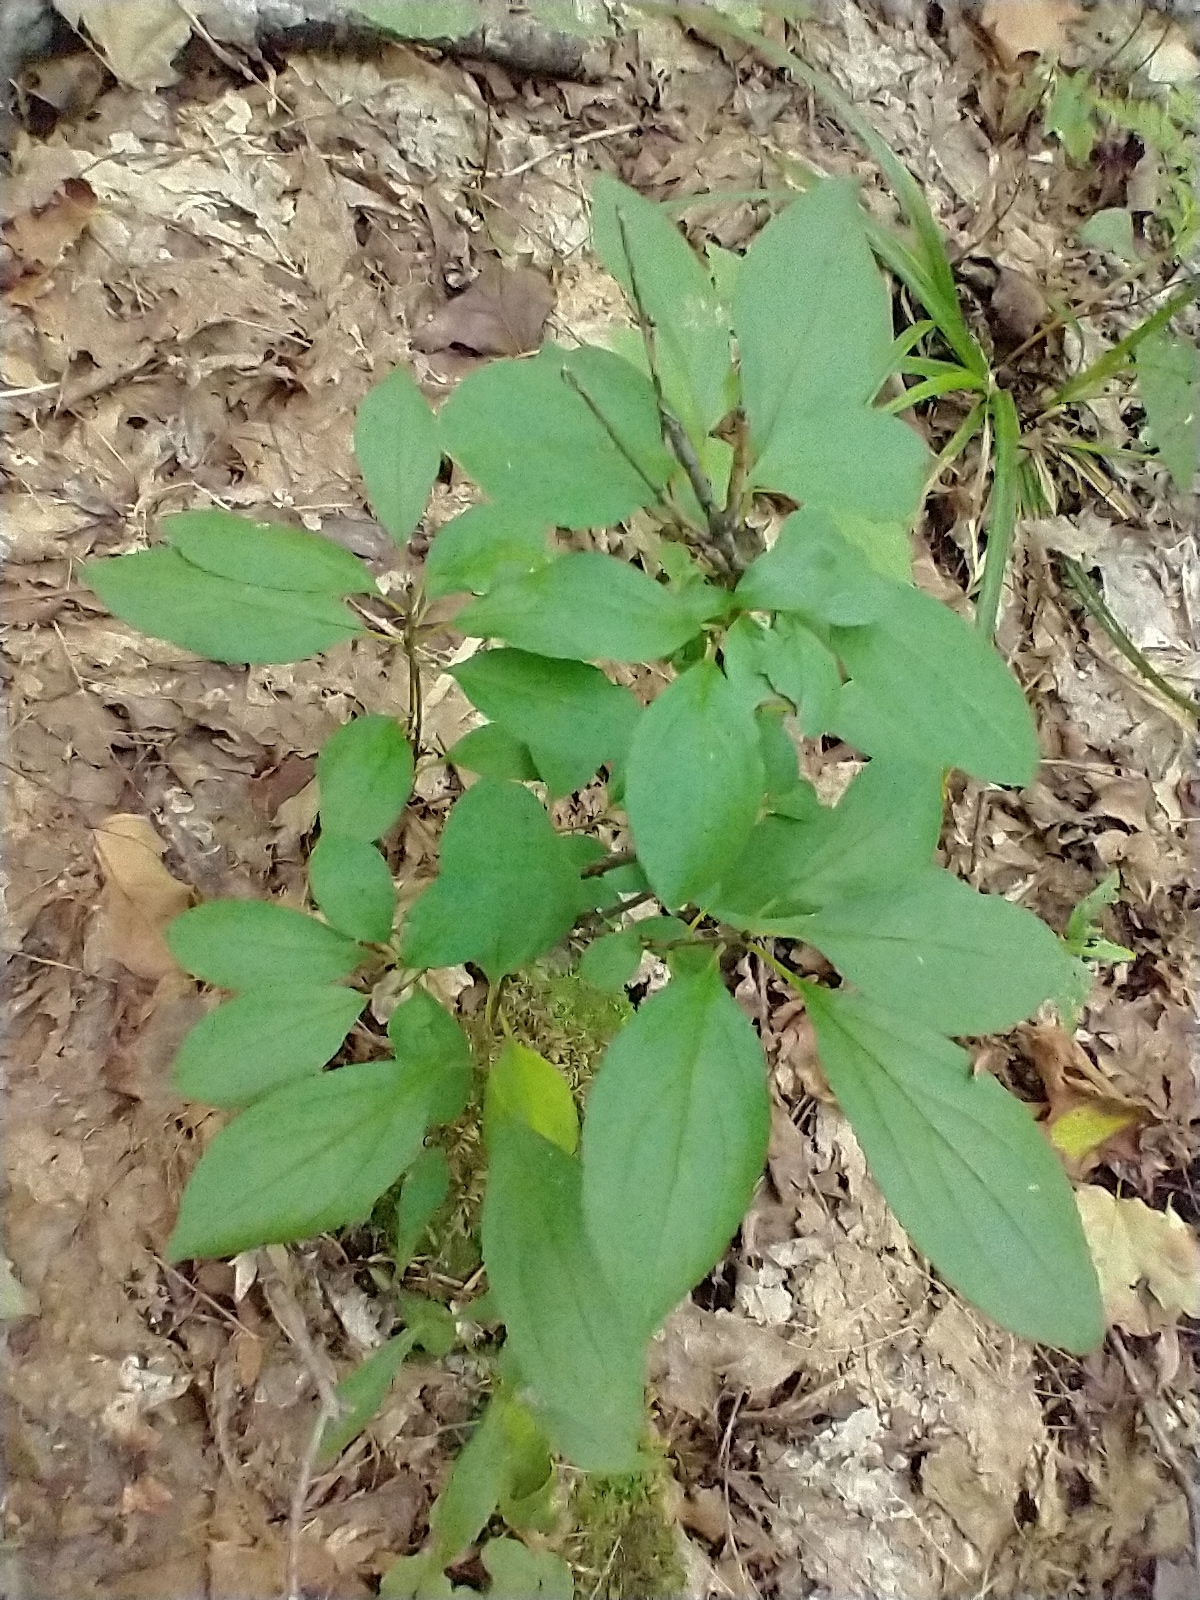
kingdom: Plantae
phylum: Tracheophyta
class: Magnoliopsida
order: Rosales
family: Rhamnaceae
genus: Rhamnus
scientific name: Rhamnus cathartica
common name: Common buckthorn
